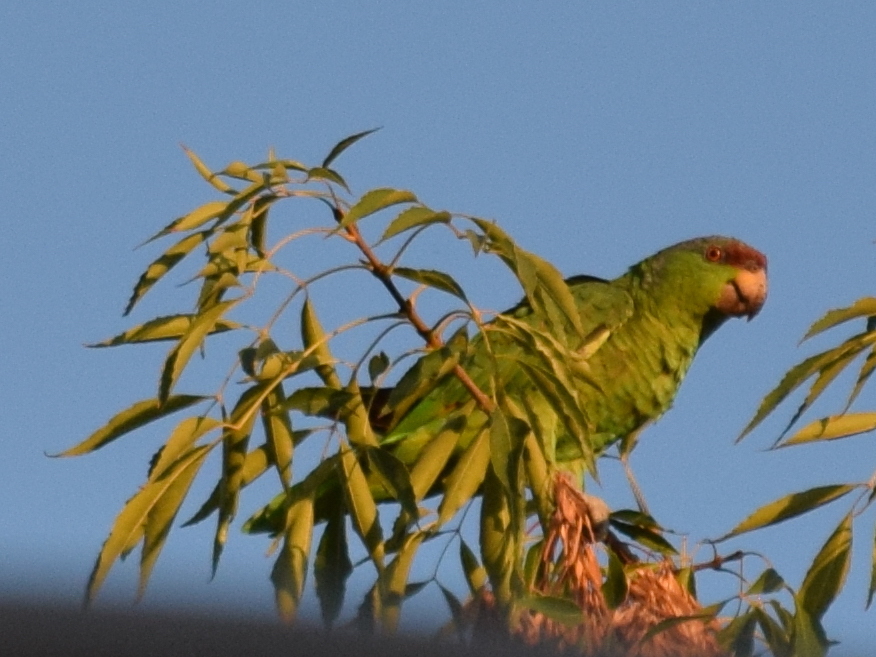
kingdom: Animalia
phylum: Chordata
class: Aves
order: Psittaciformes
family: Psittacidae
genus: Amazona
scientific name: Amazona finschi
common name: Lilac-crowned amazon
